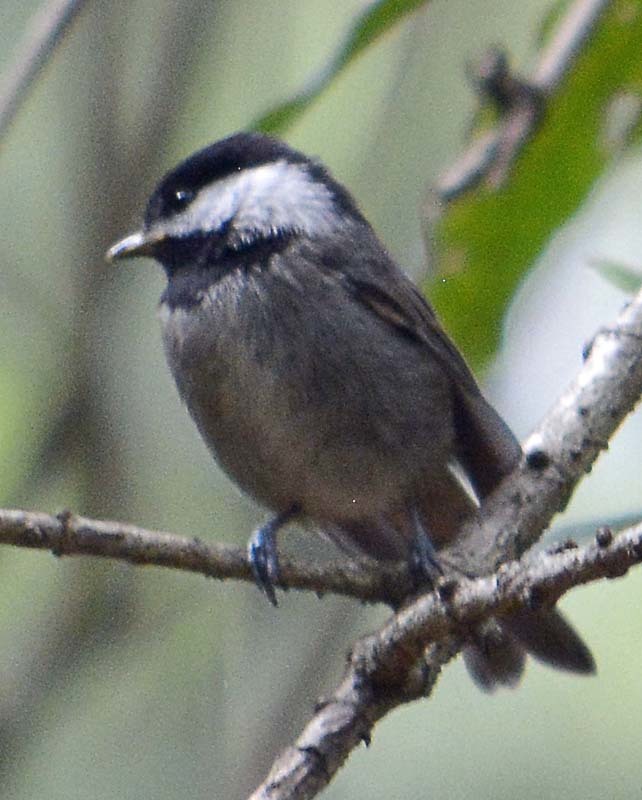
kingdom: Animalia
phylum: Chordata
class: Aves
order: Passeriformes
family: Paridae
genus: Poecile
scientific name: Poecile sclateri
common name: Mexican chickadee
